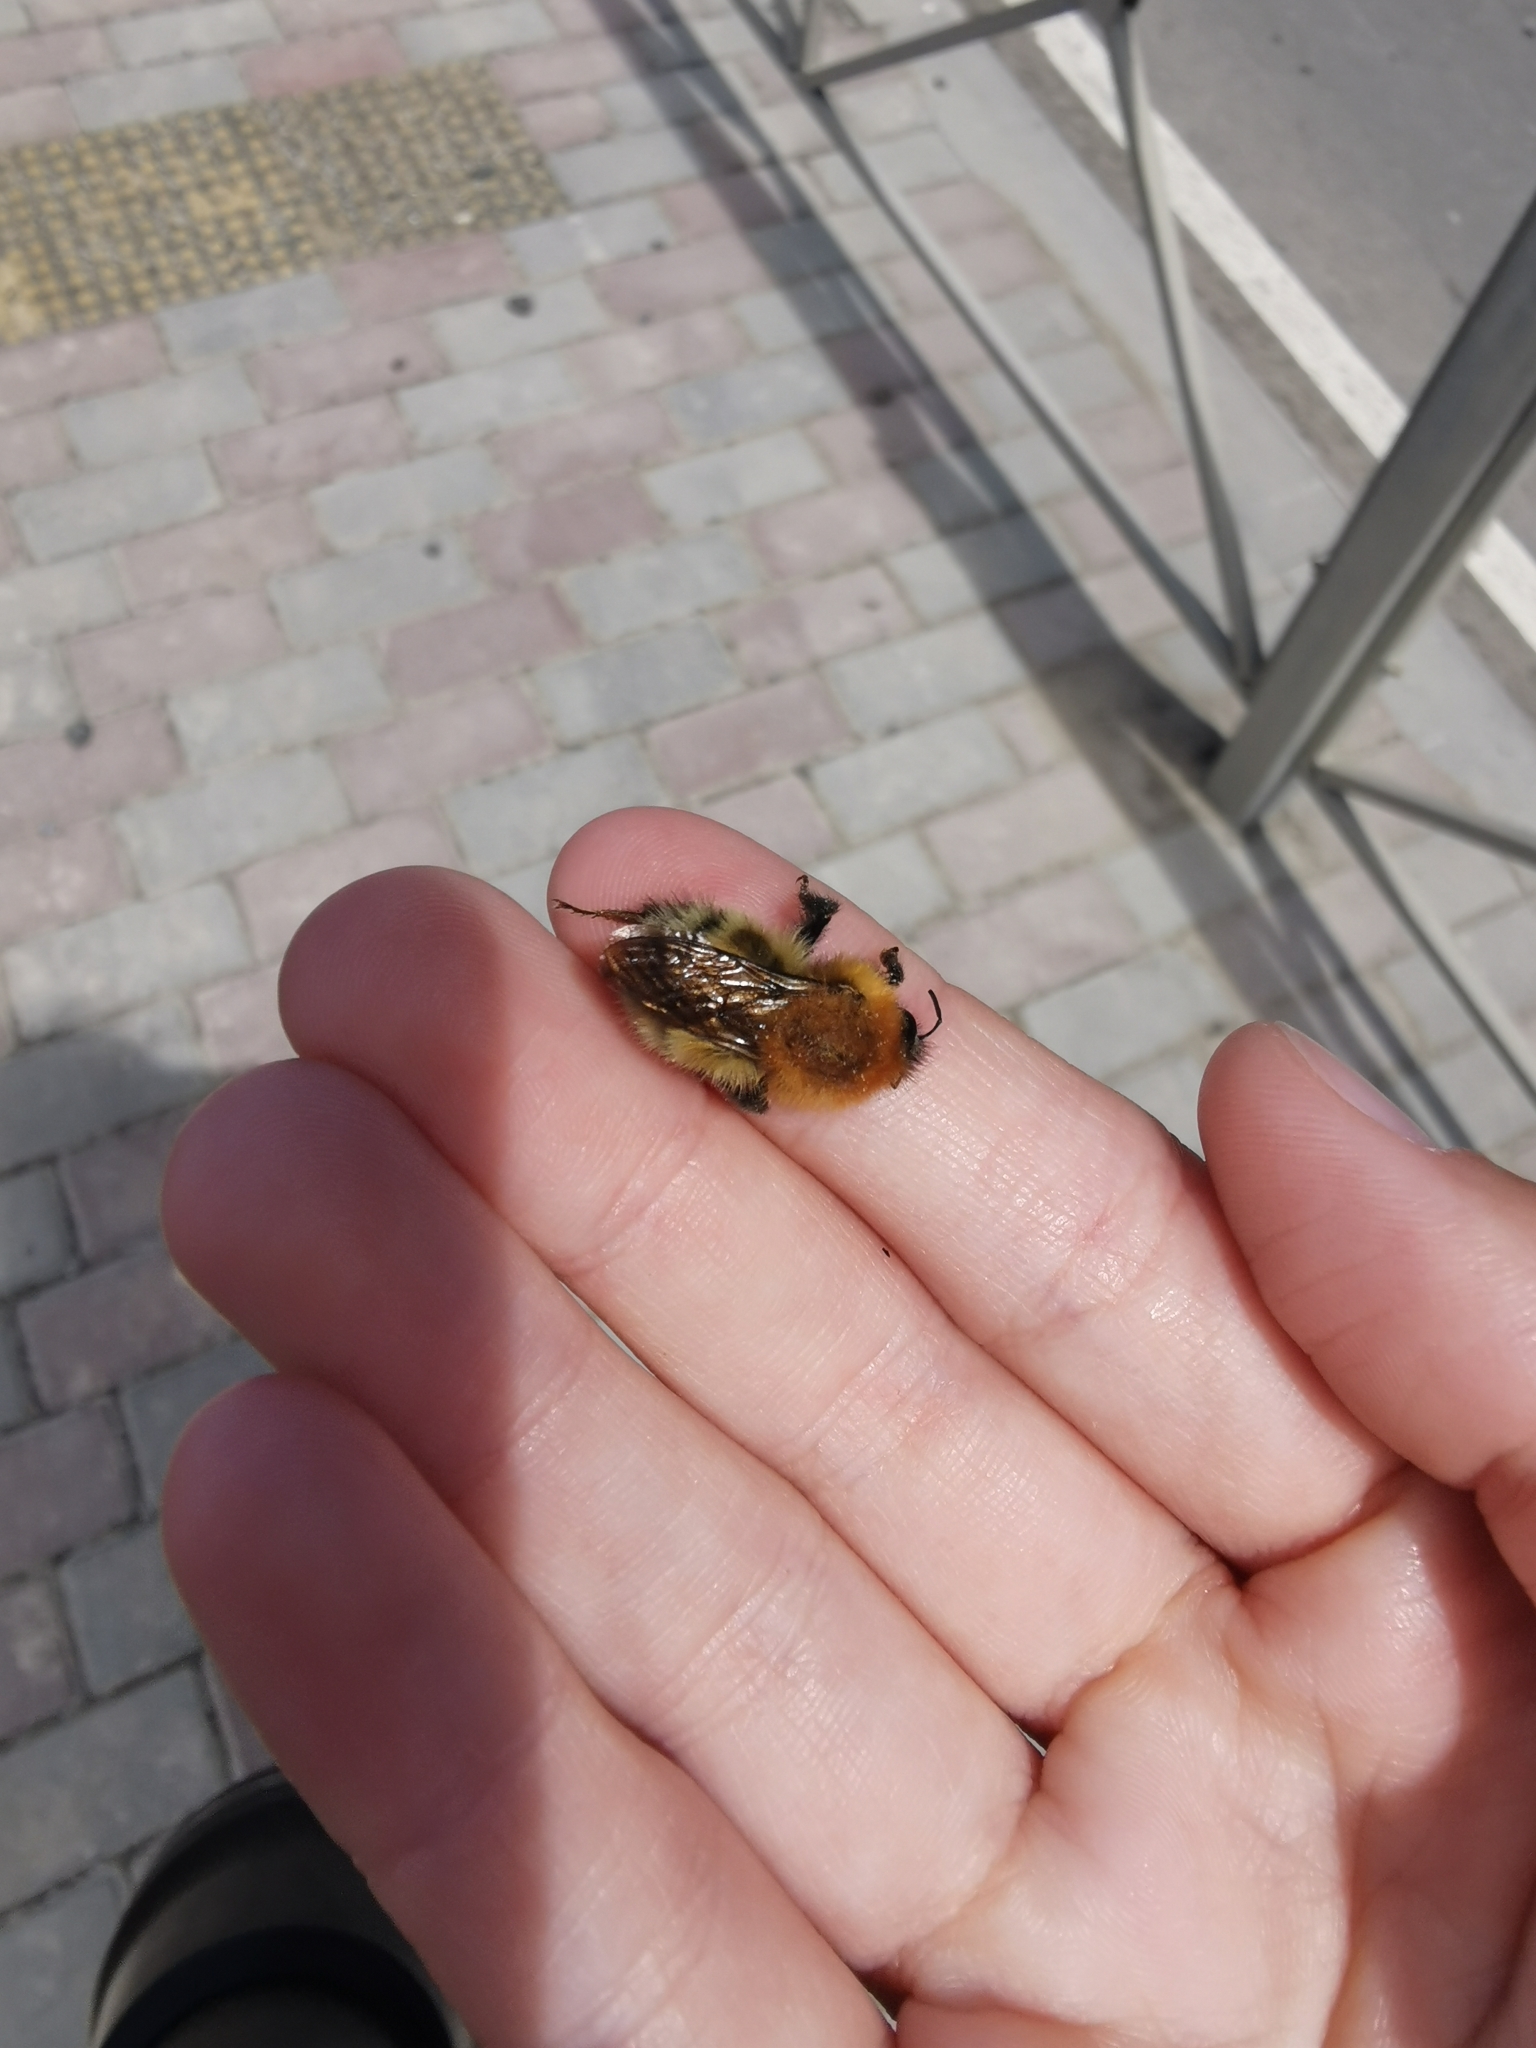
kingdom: Animalia
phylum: Arthropoda
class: Insecta
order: Hymenoptera
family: Apidae
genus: Bombus
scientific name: Bombus schrencki
